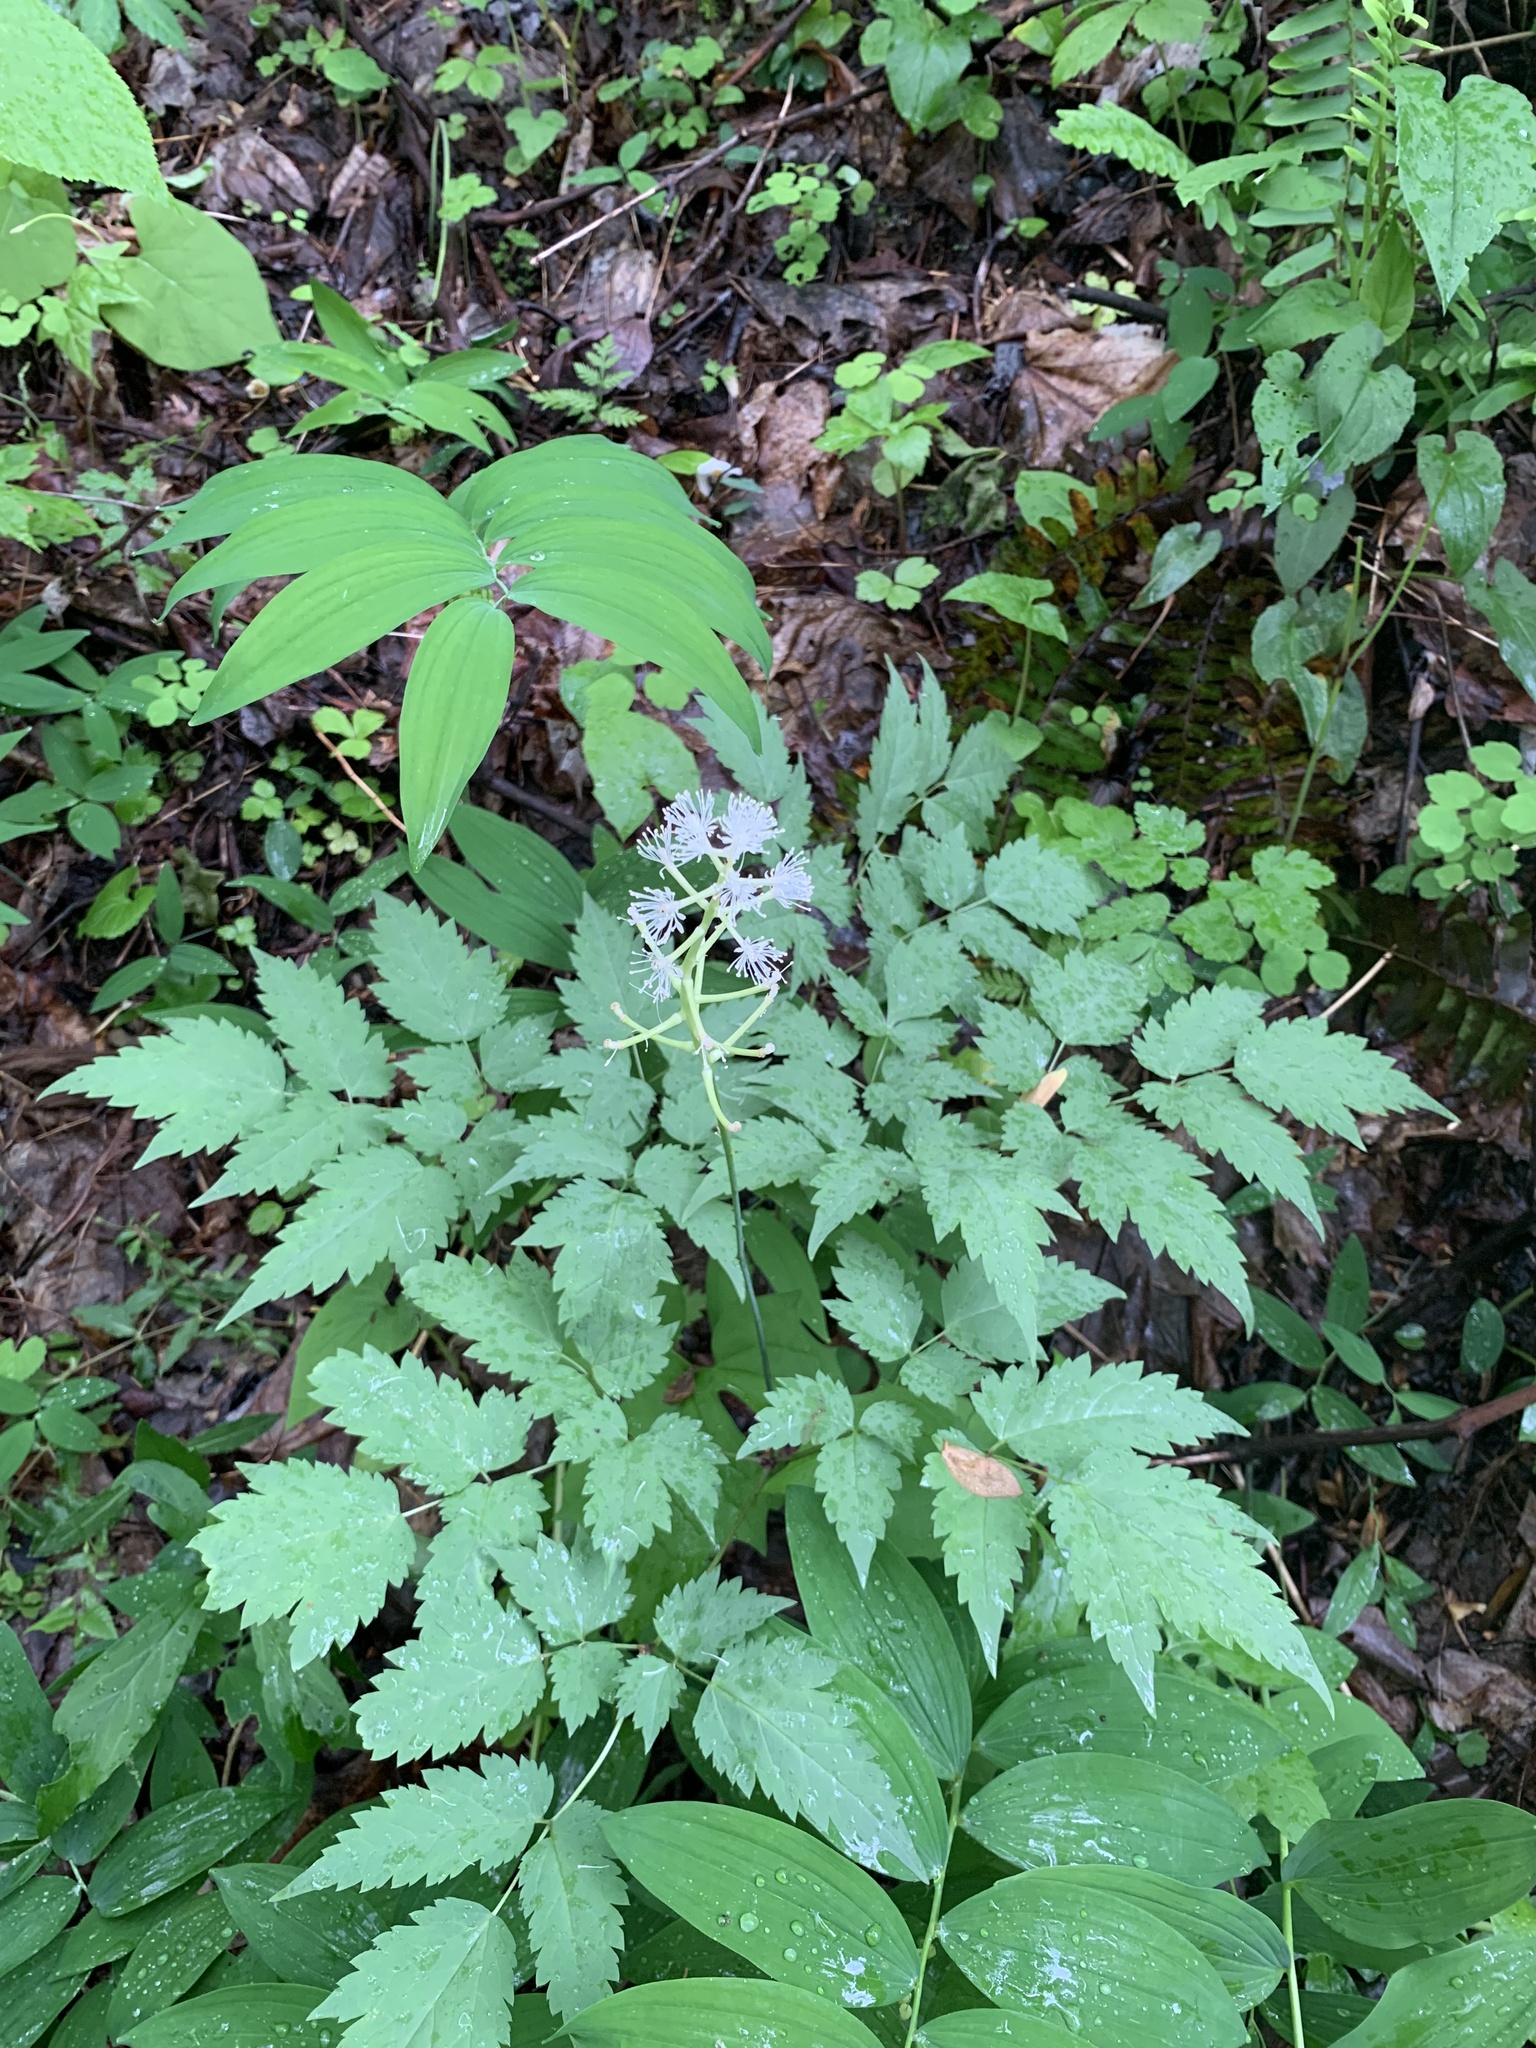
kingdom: Plantae
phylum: Tracheophyta
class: Magnoliopsida
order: Ranunculales
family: Ranunculaceae
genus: Actaea
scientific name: Actaea pachypoda
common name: Doll's-eyes
